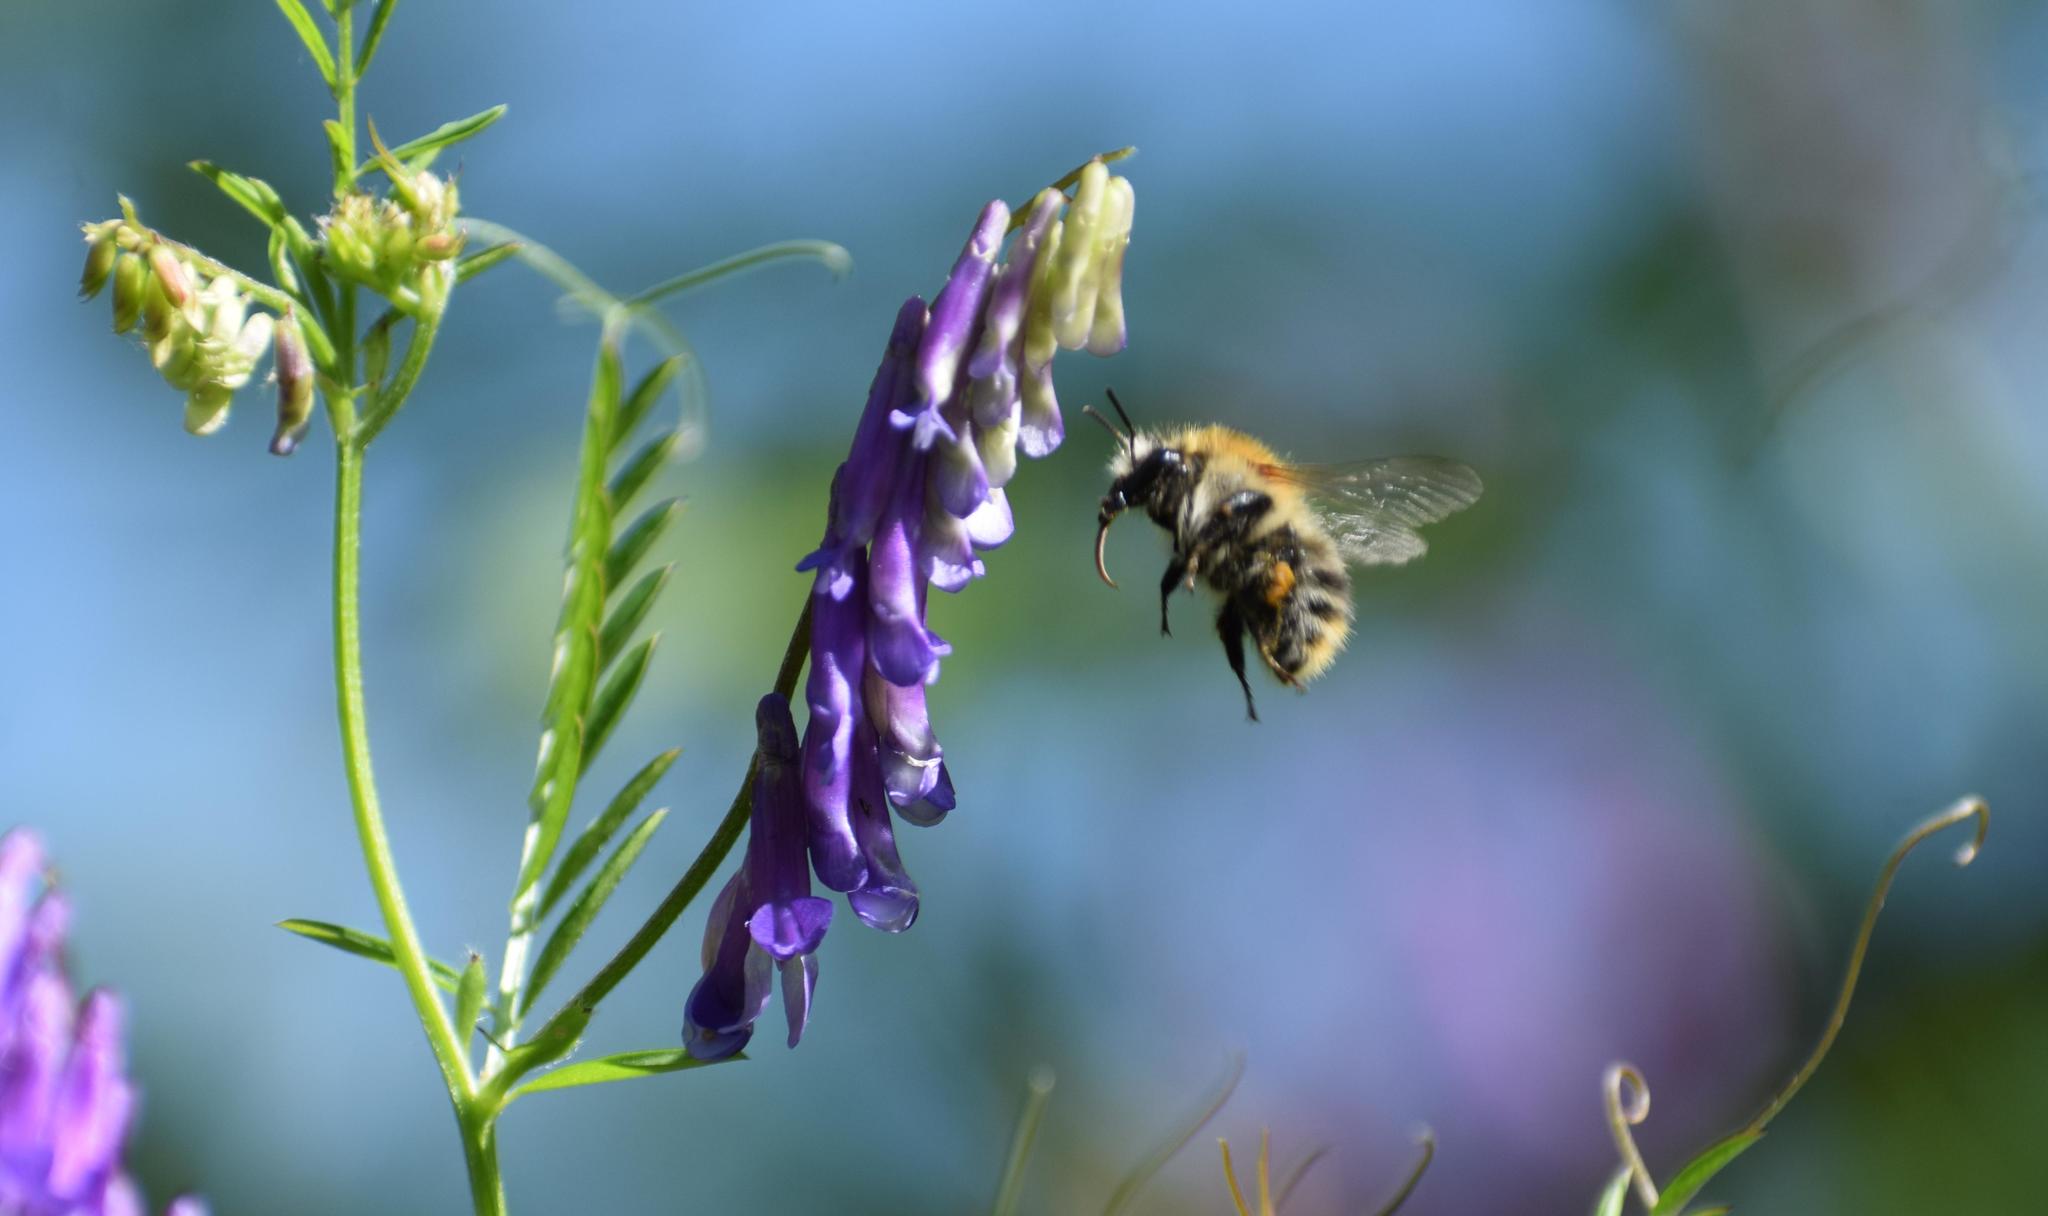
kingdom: Animalia
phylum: Arthropoda
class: Insecta
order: Hymenoptera
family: Apidae
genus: Bombus
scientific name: Bombus pascuorum
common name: Common carder bee
